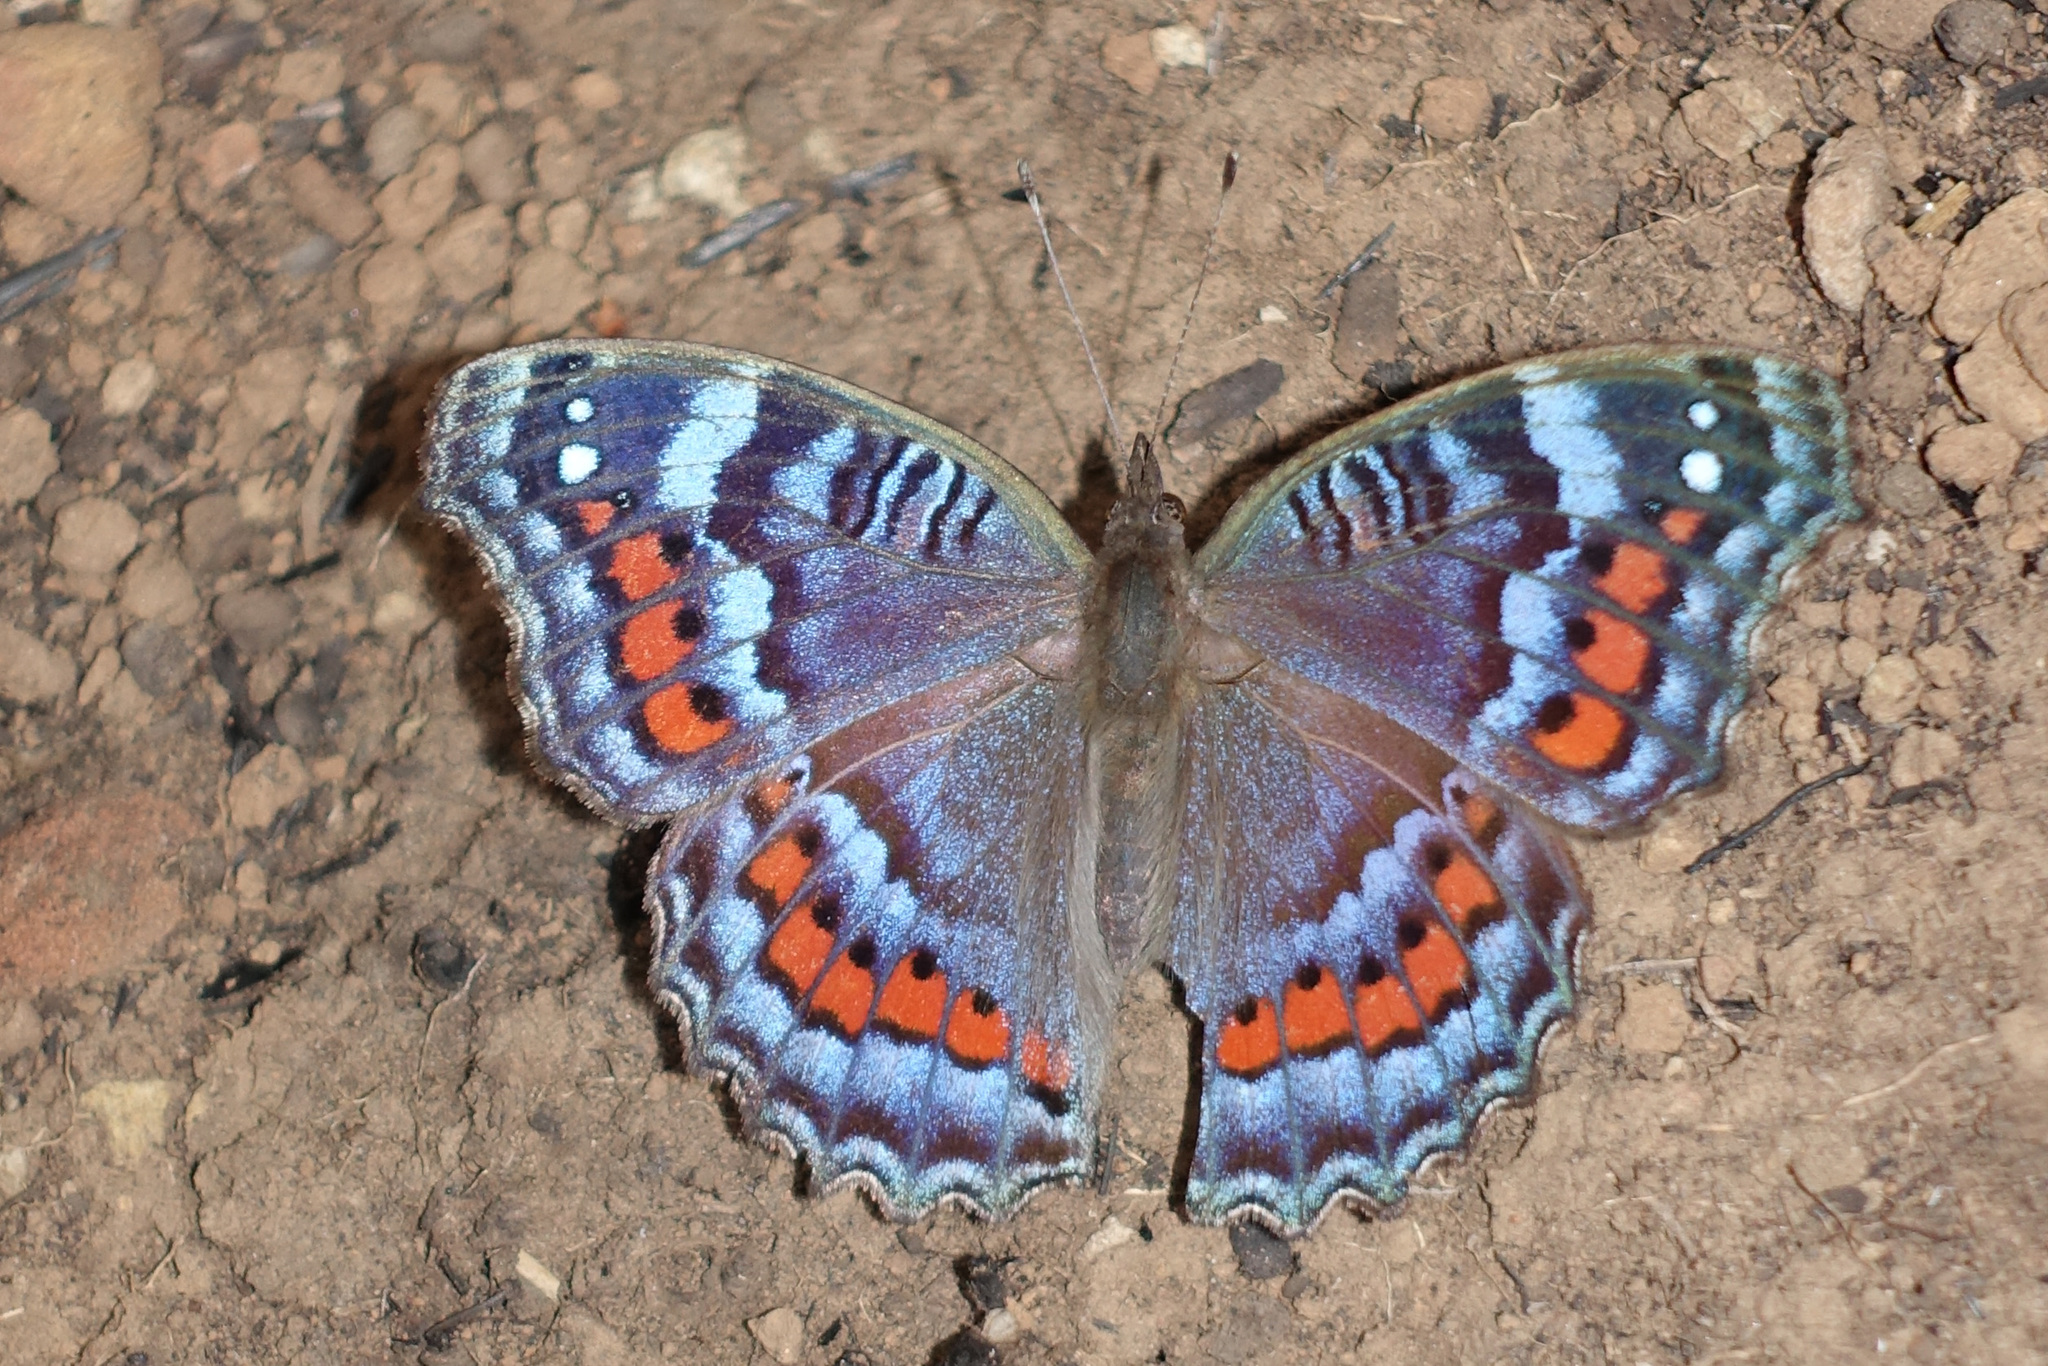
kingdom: Animalia
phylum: Arthropoda
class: Insecta
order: Lepidoptera
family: Nymphalidae
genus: Precis
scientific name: Precis octavia
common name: Gaudy commodore
